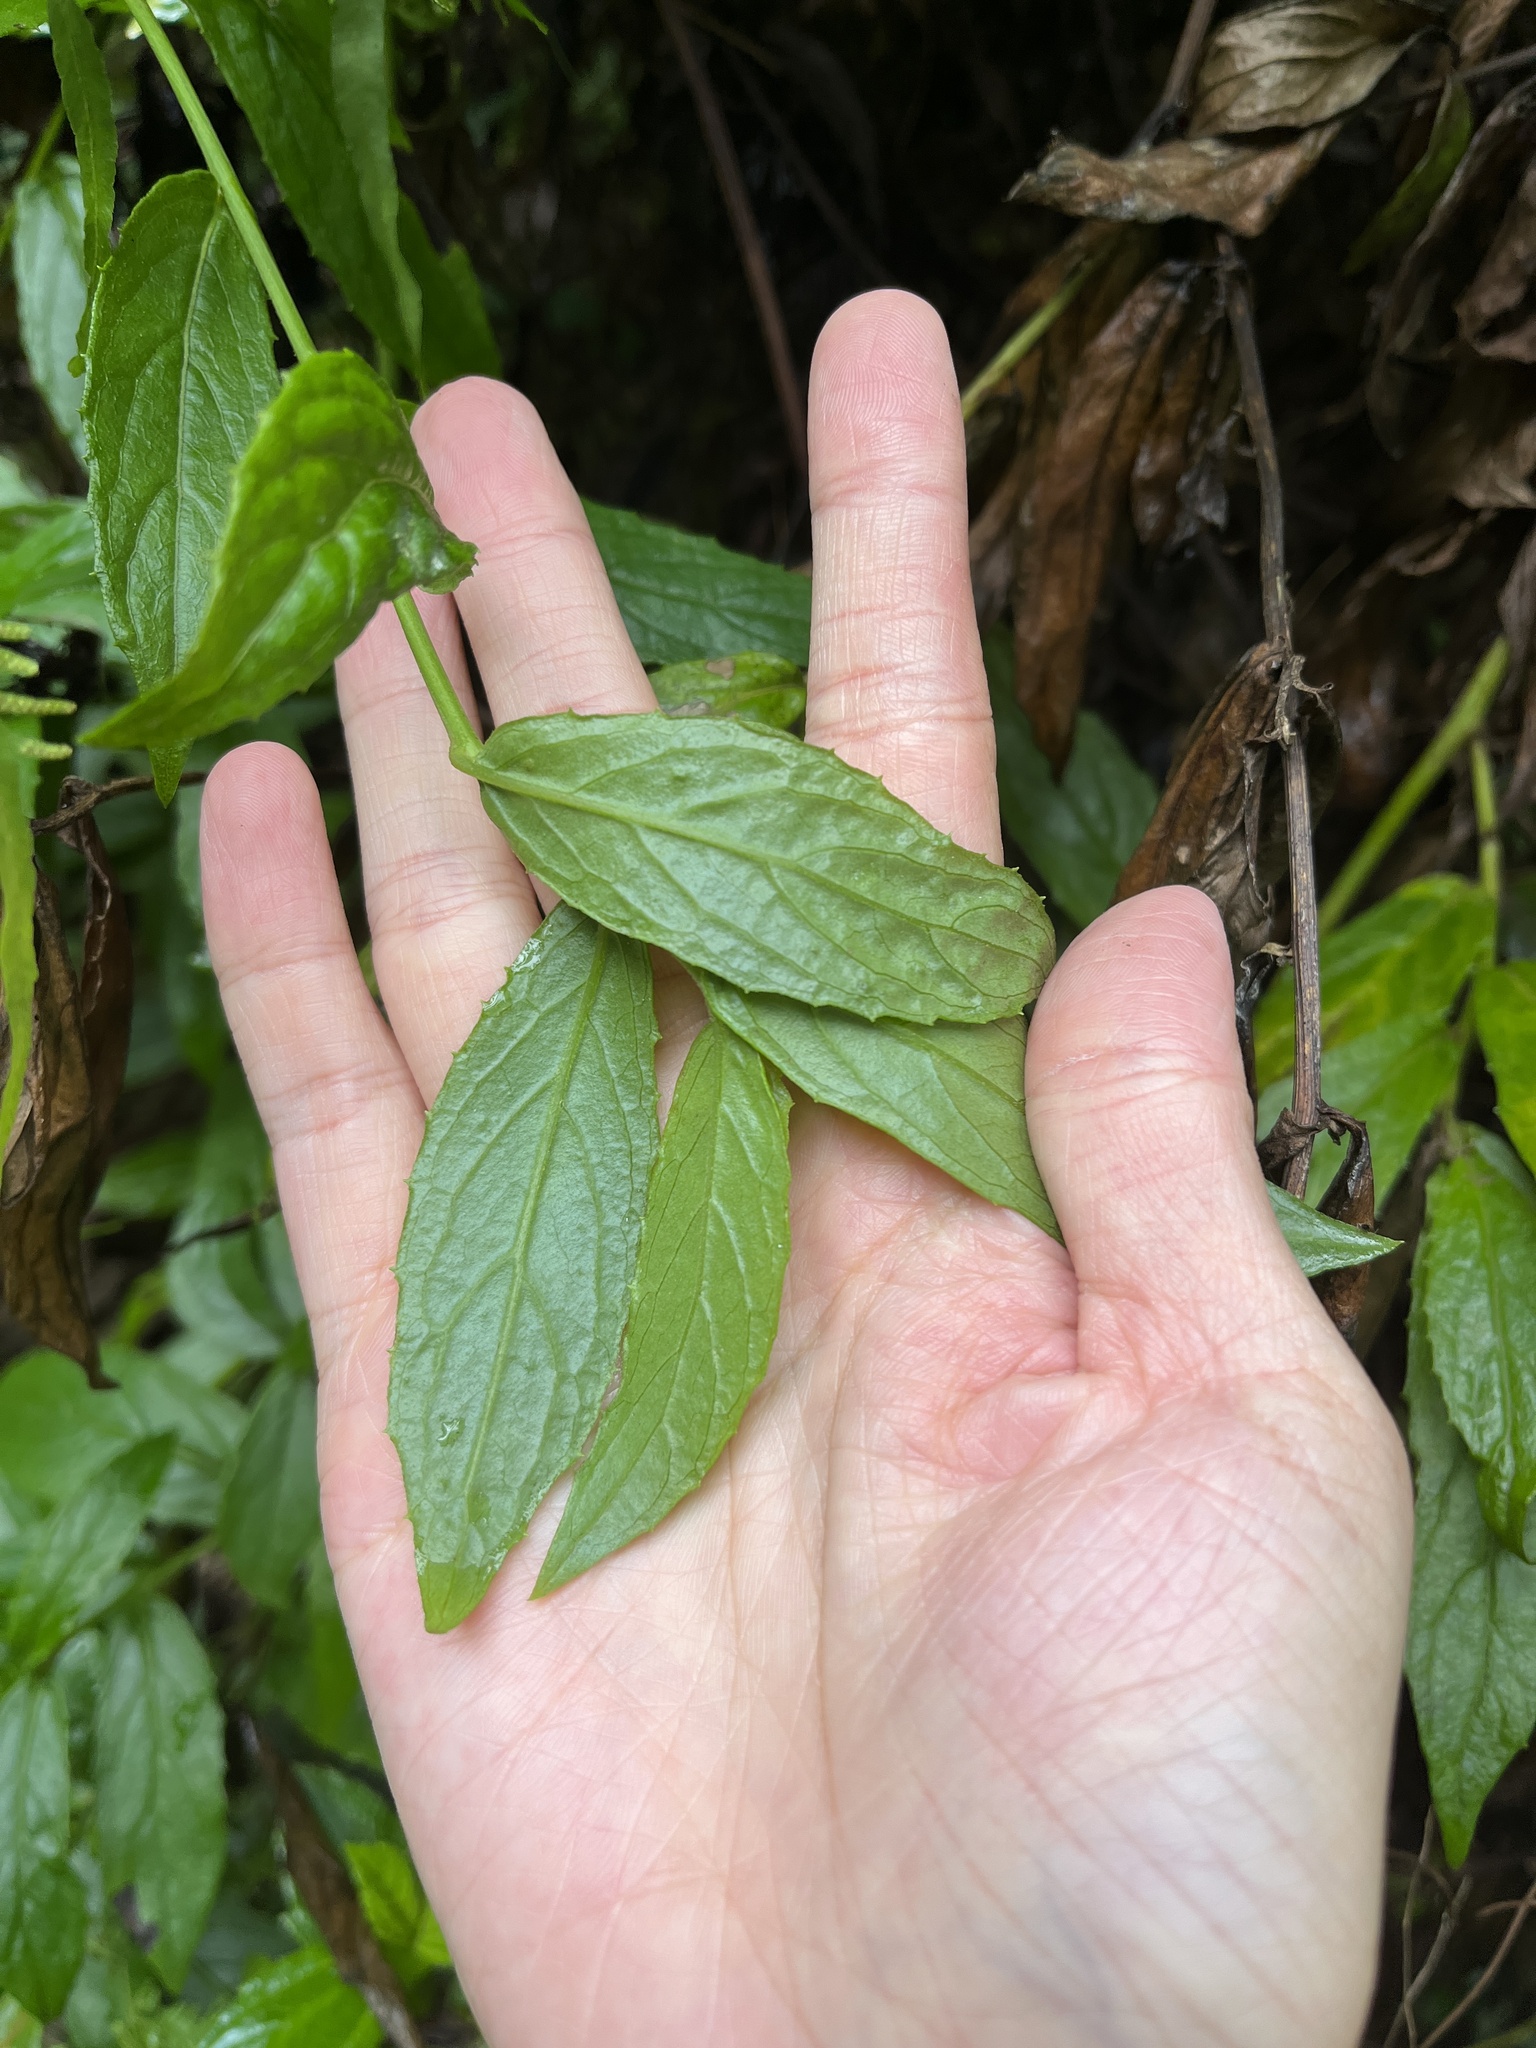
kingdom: Plantae
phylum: Tracheophyta
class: Magnoliopsida
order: Asterales
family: Asteraceae
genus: Blumea
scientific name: Blumea megacephala
